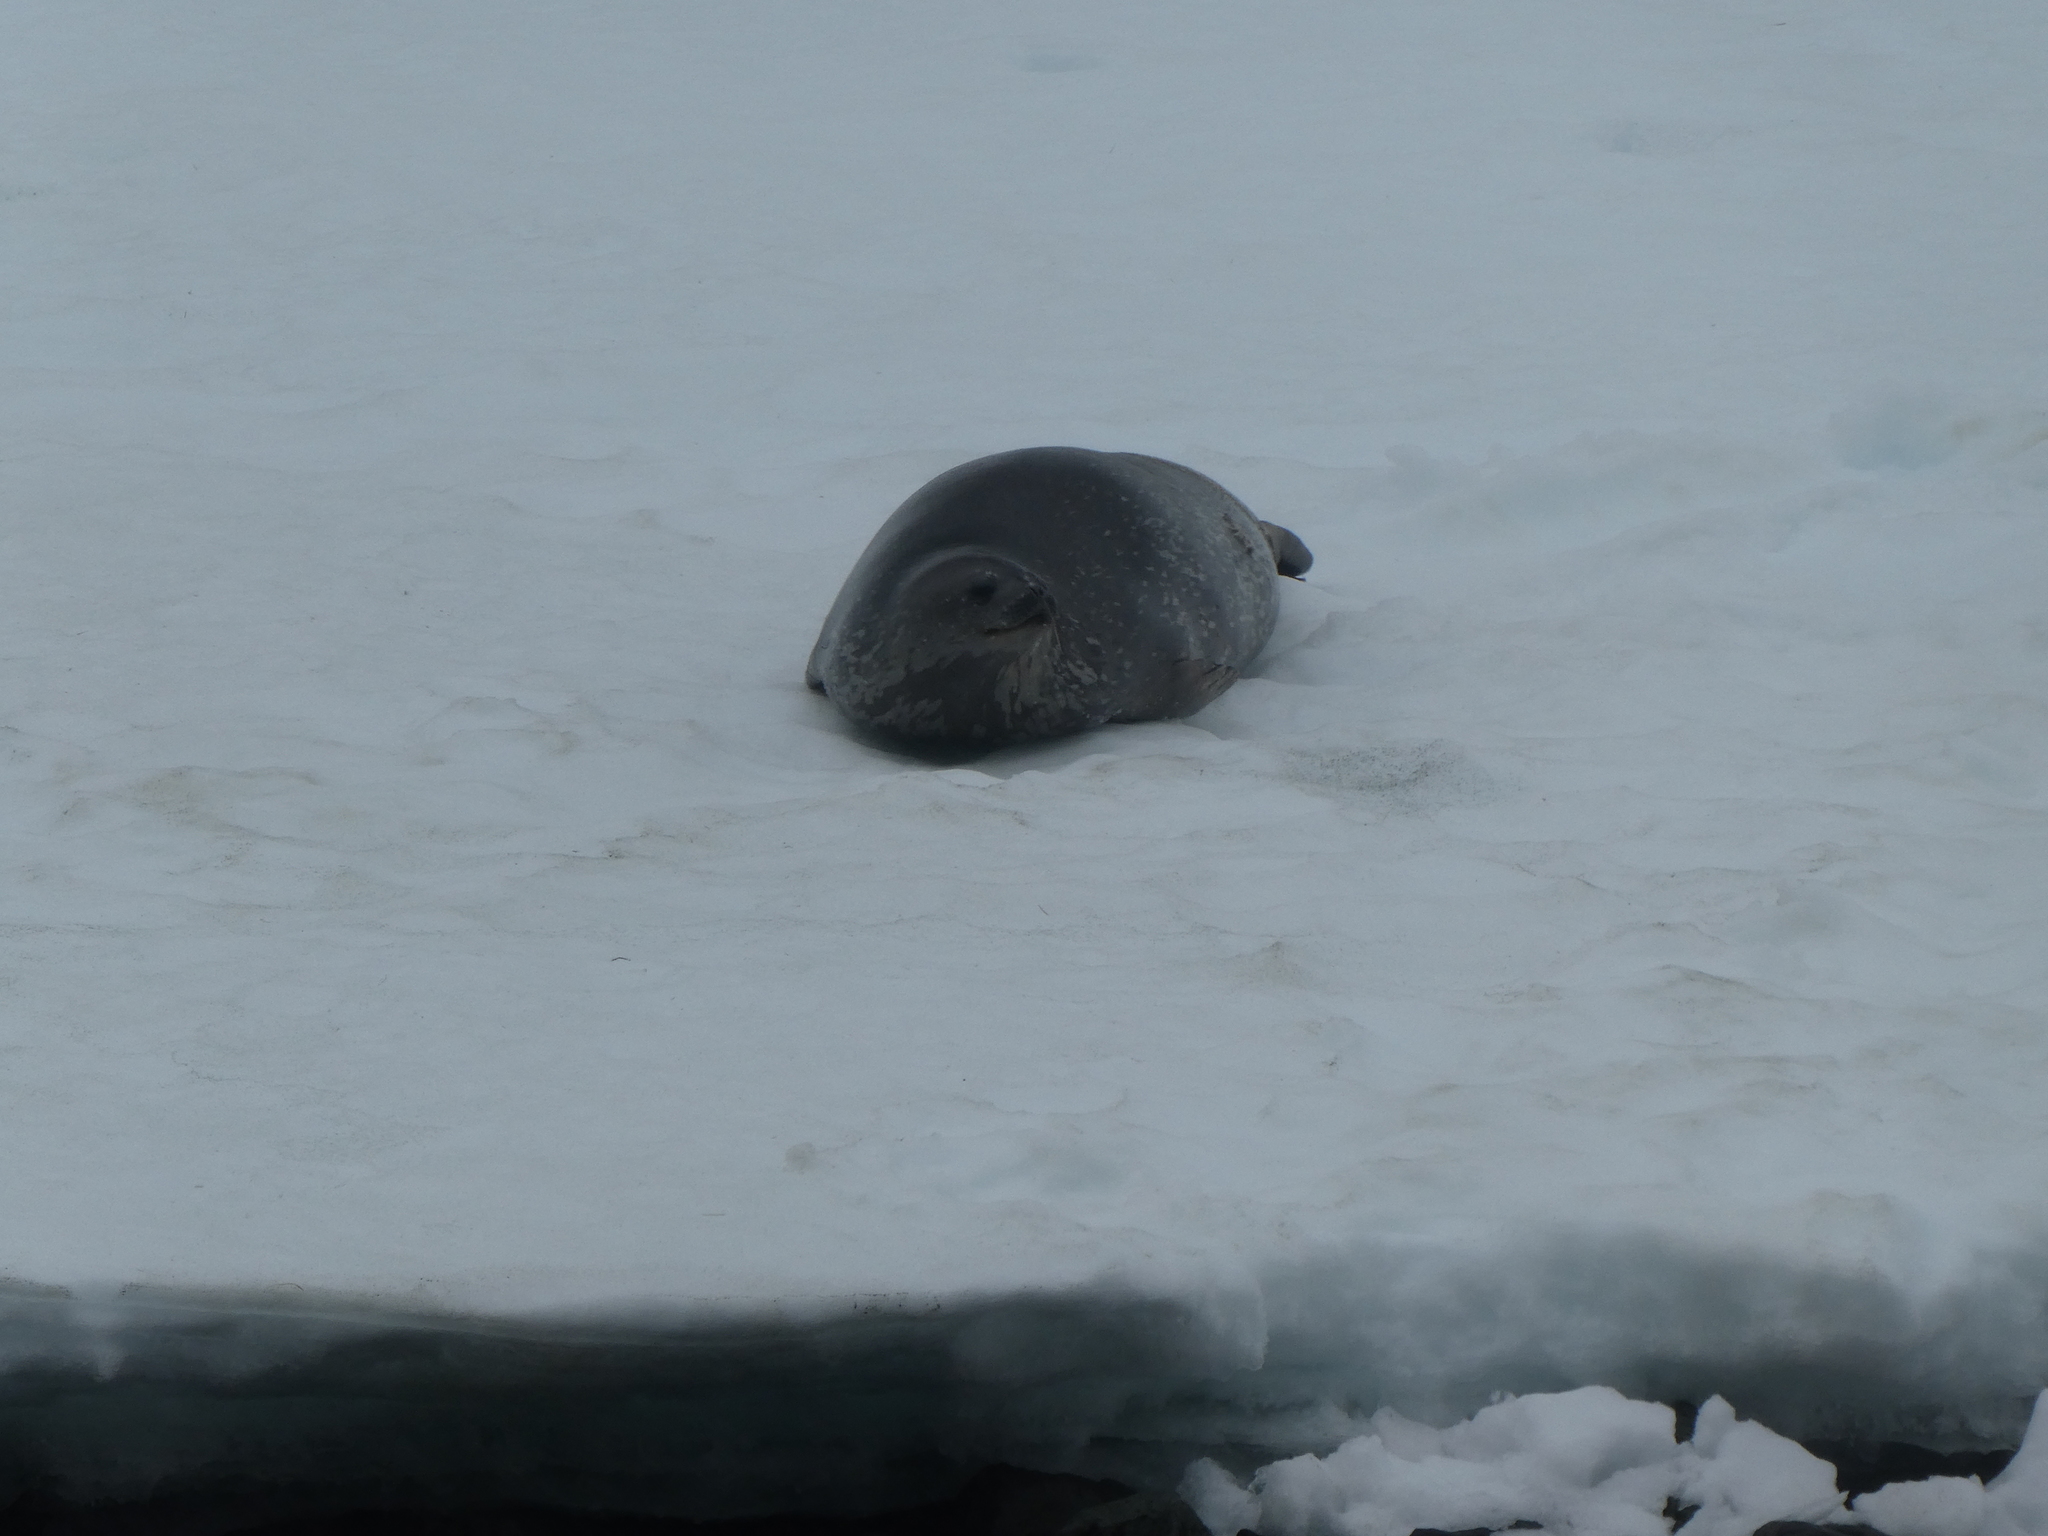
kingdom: Animalia
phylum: Chordata
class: Mammalia
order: Carnivora
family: Phocidae
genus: Leptonychotes
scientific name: Leptonychotes weddellii
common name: Weddell seal
